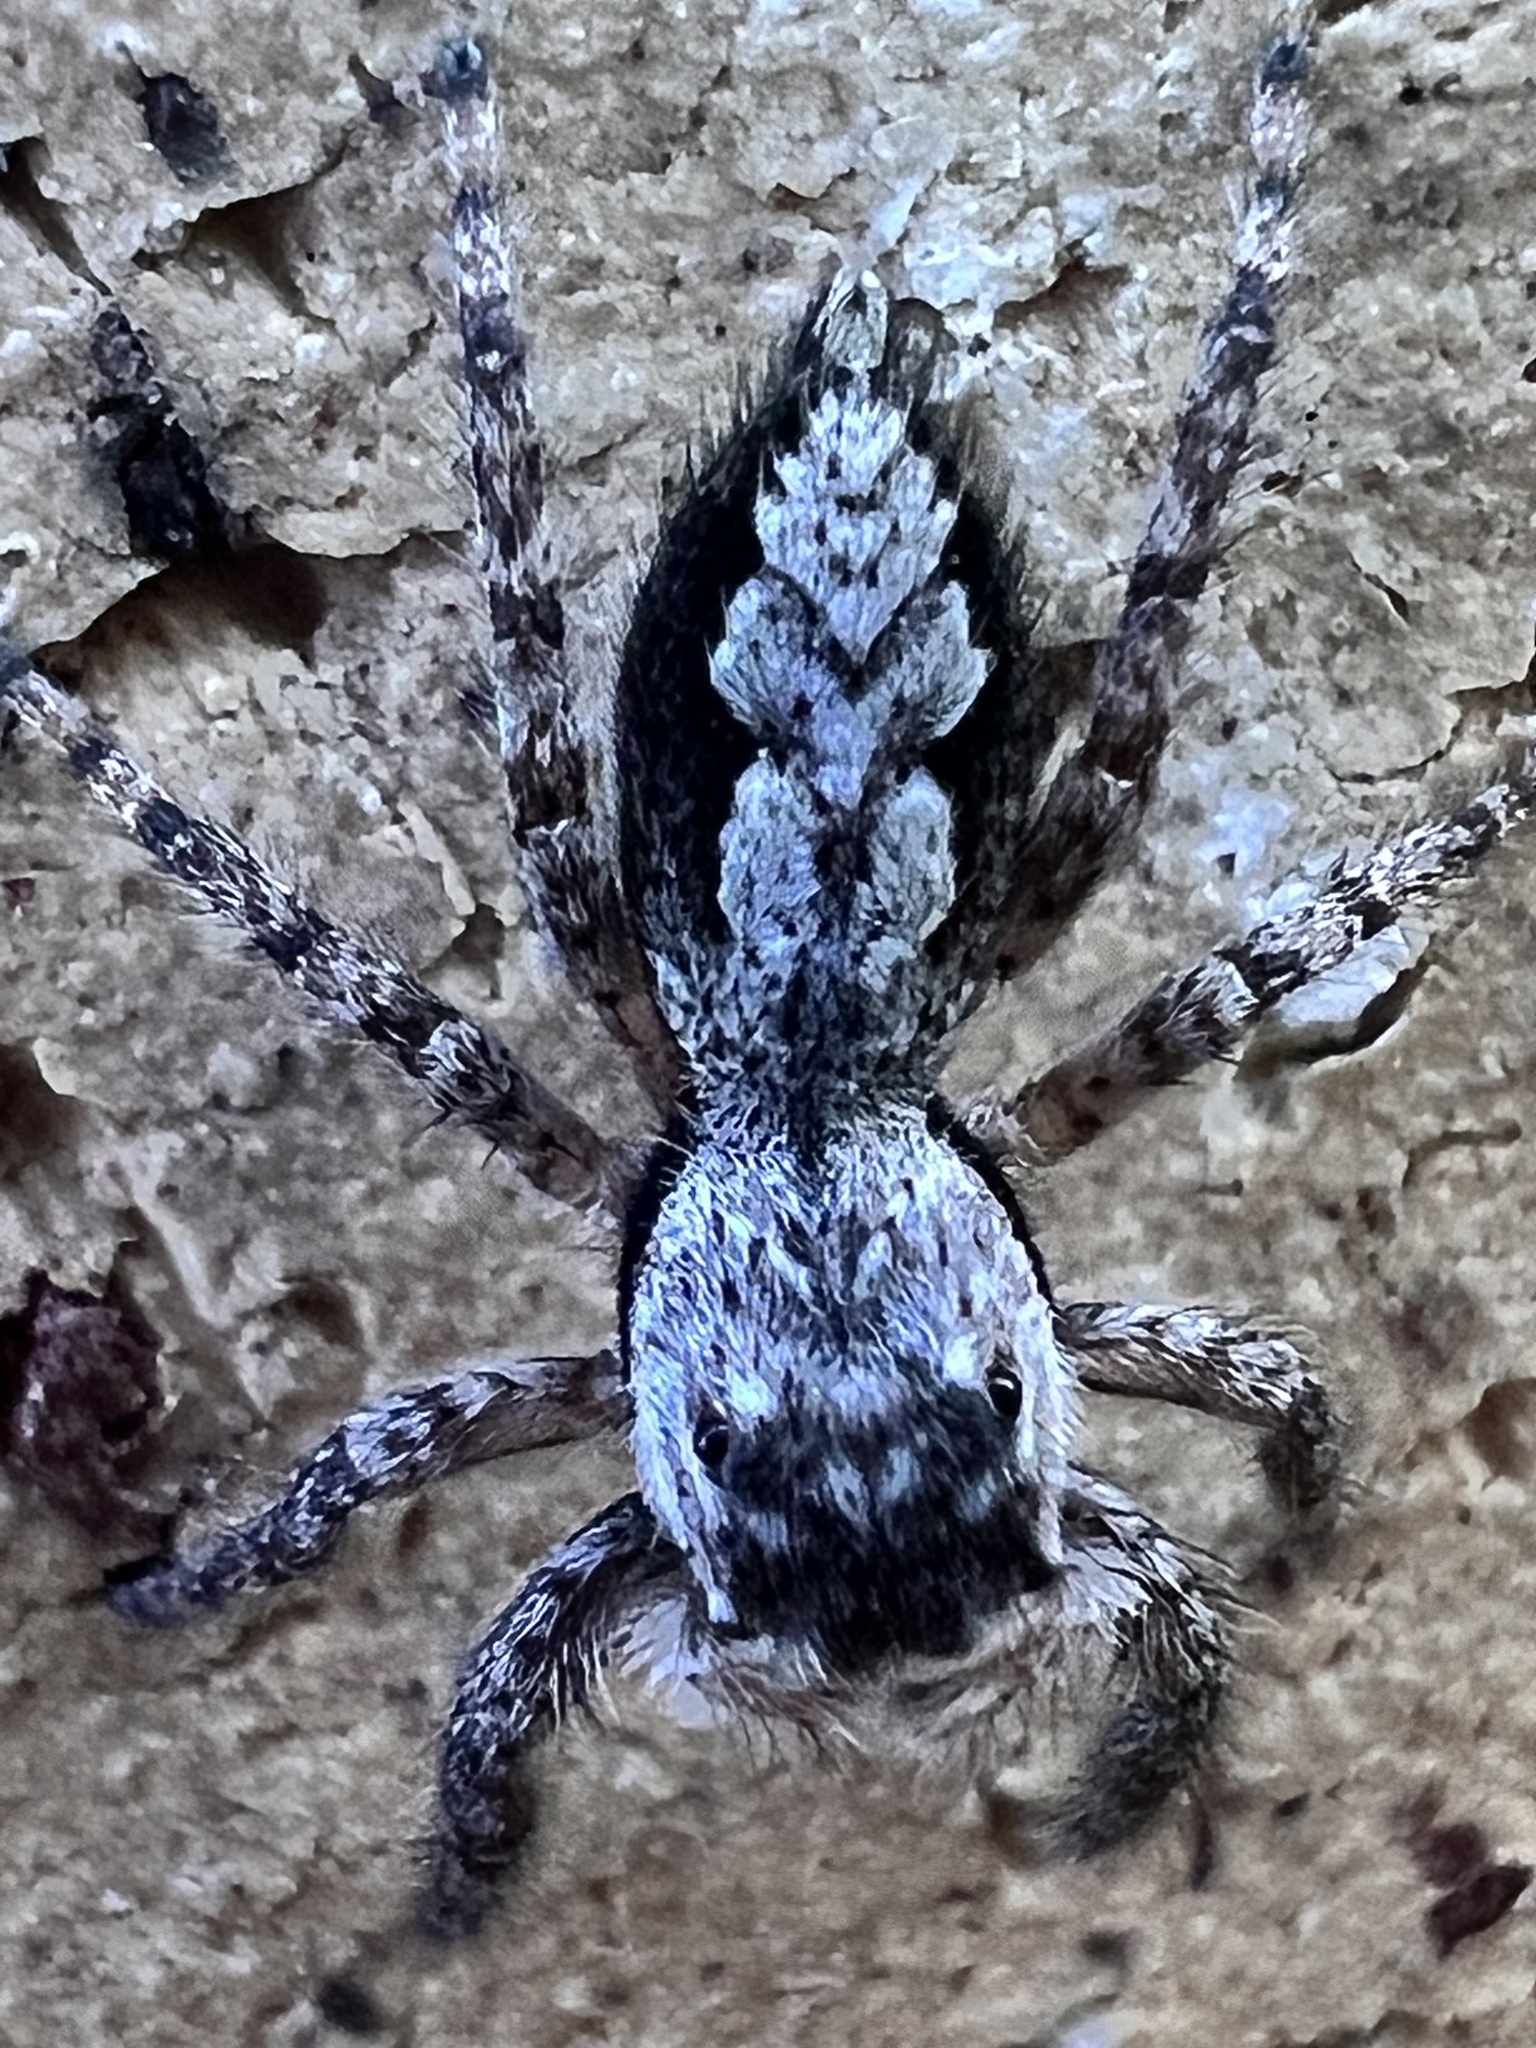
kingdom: Animalia
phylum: Arthropoda
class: Arachnida
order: Araneae
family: Salticidae
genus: Platycryptus
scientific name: Platycryptus undatus
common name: Tan jumping spider
